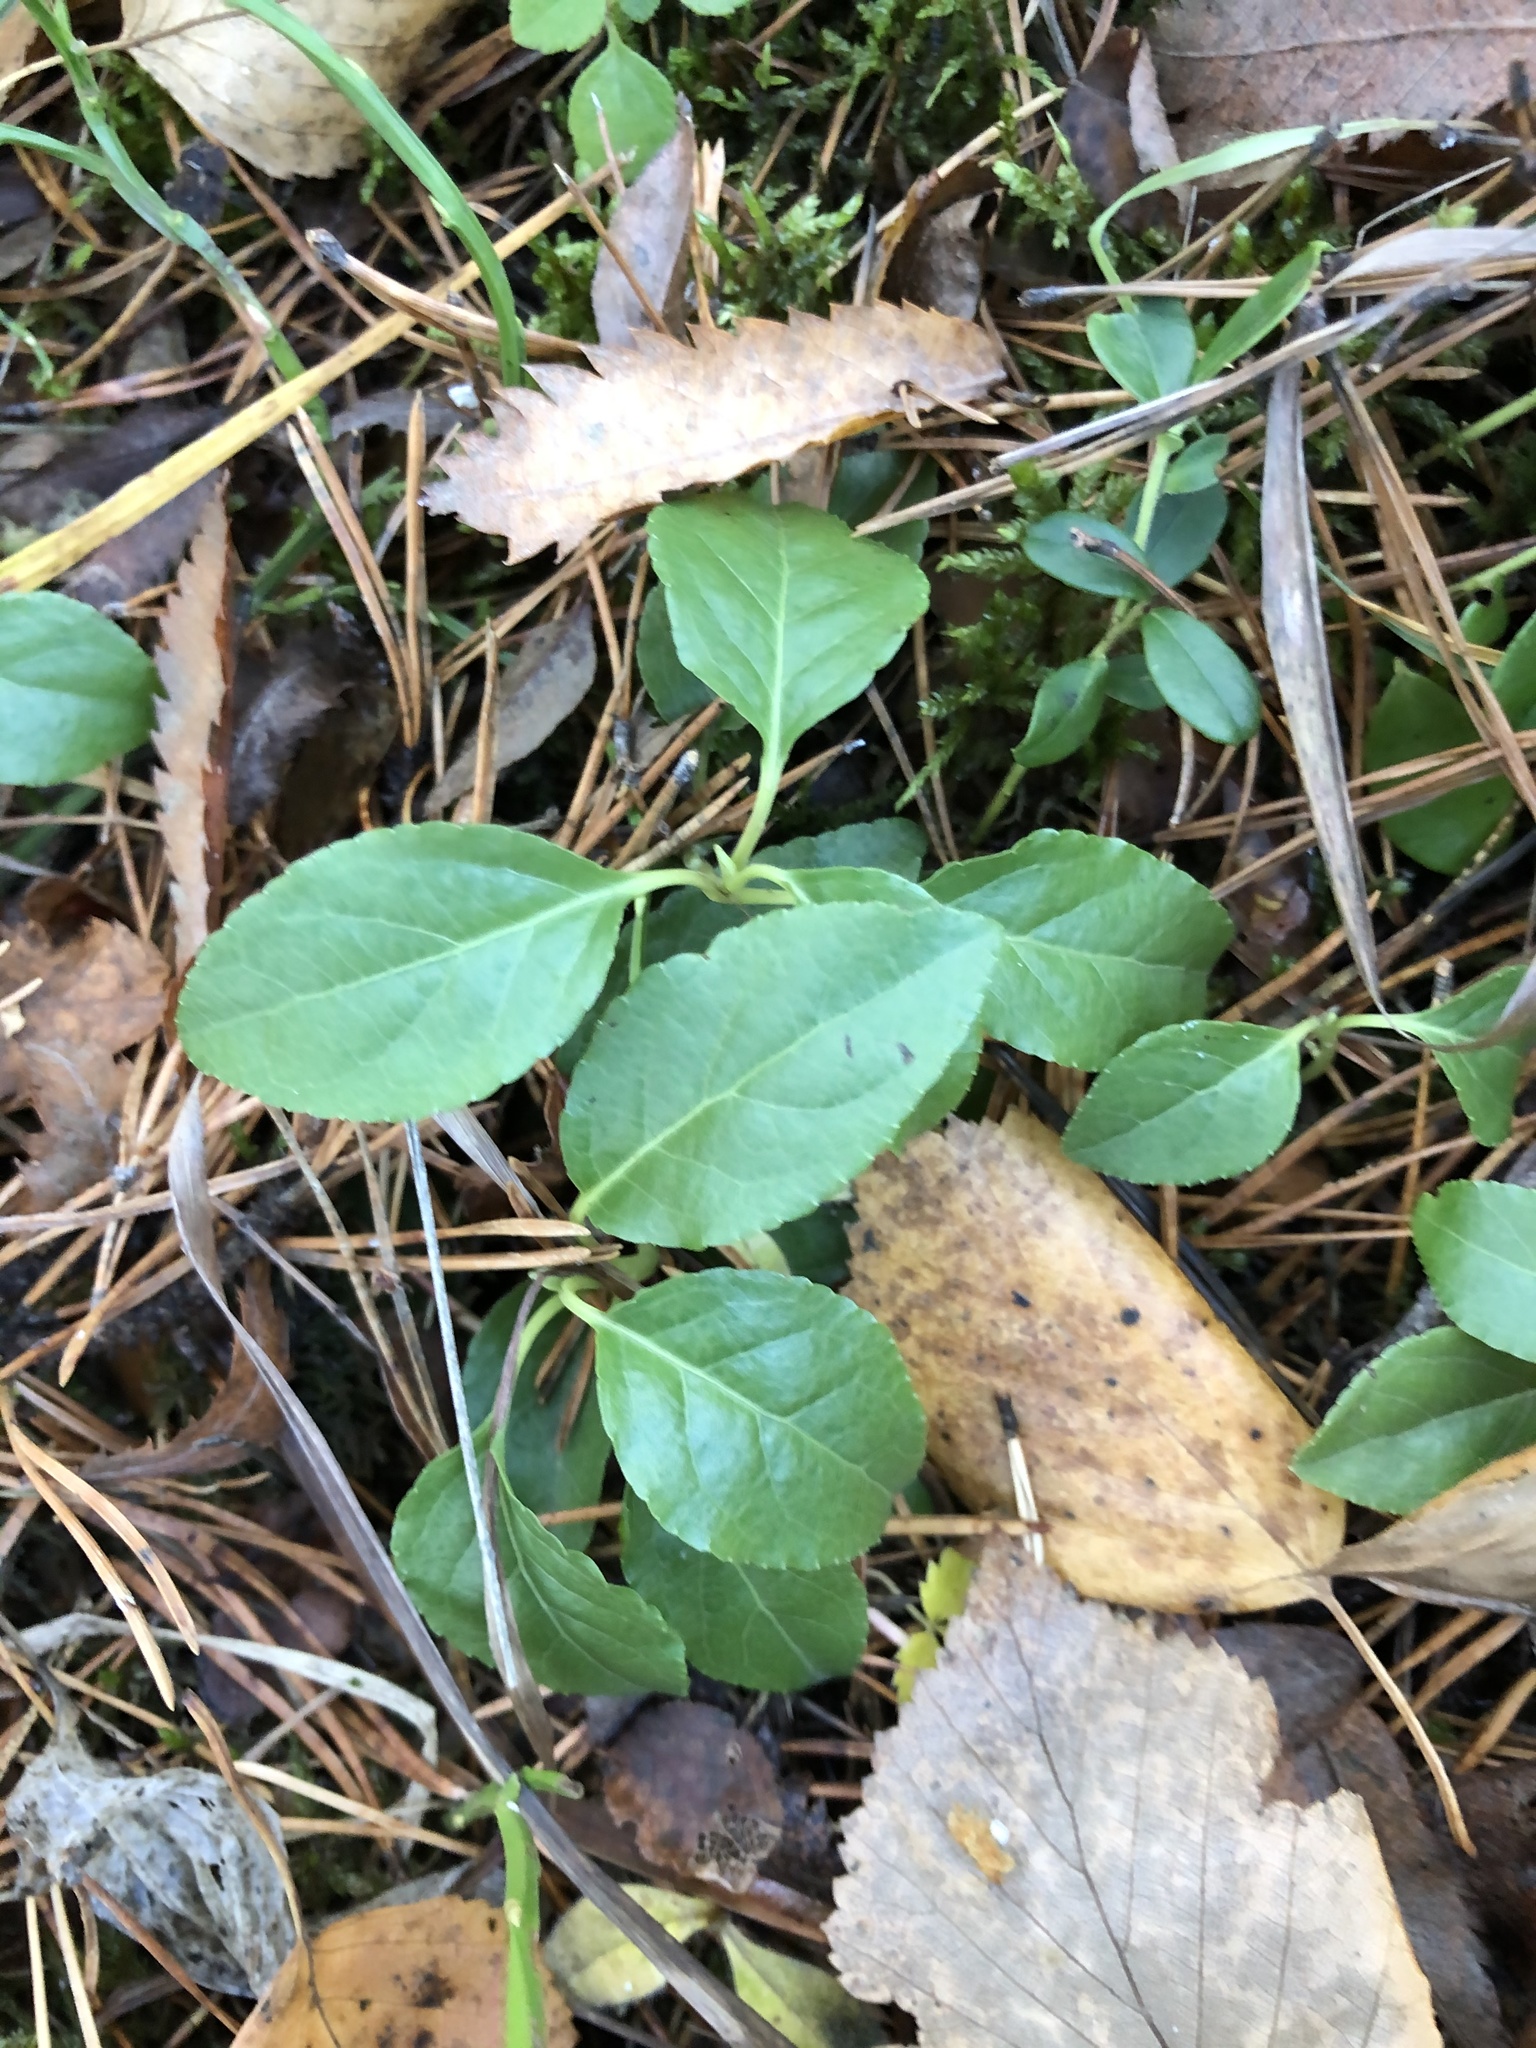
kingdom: Plantae
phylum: Tracheophyta
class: Magnoliopsida
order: Ericales
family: Ericaceae
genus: Orthilia
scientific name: Orthilia secunda
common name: One-sided orthilia
